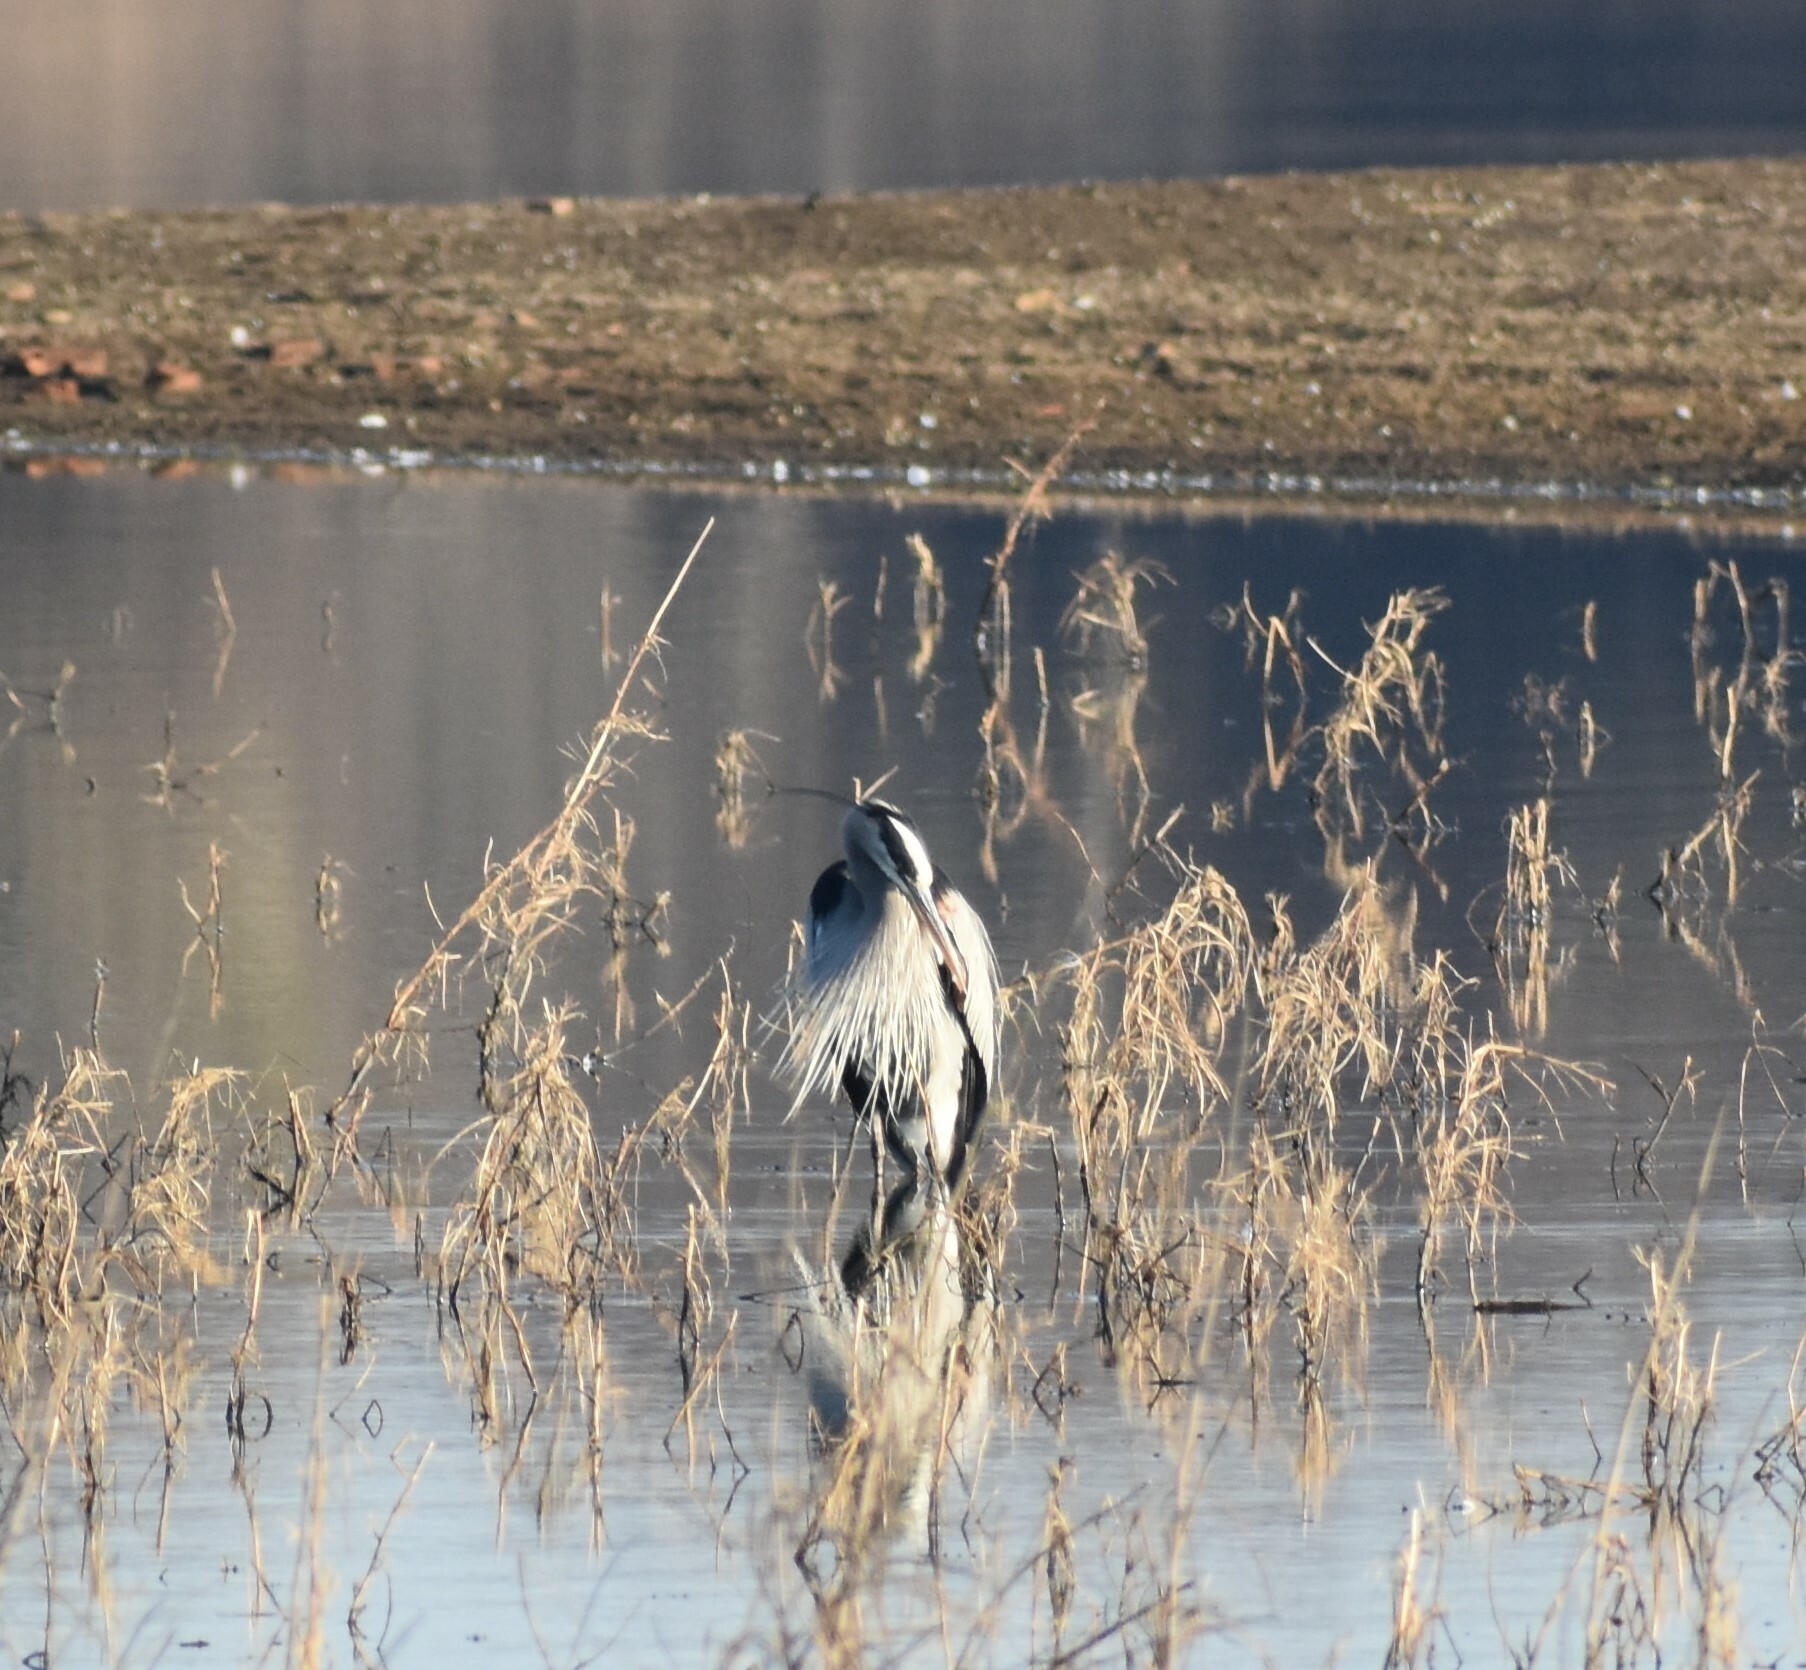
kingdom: Animalia
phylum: Chordata
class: Aves
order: Pelecaniformes
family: Ardeidae
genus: Ardea
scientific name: Ardea herodias
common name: Great blue heron
